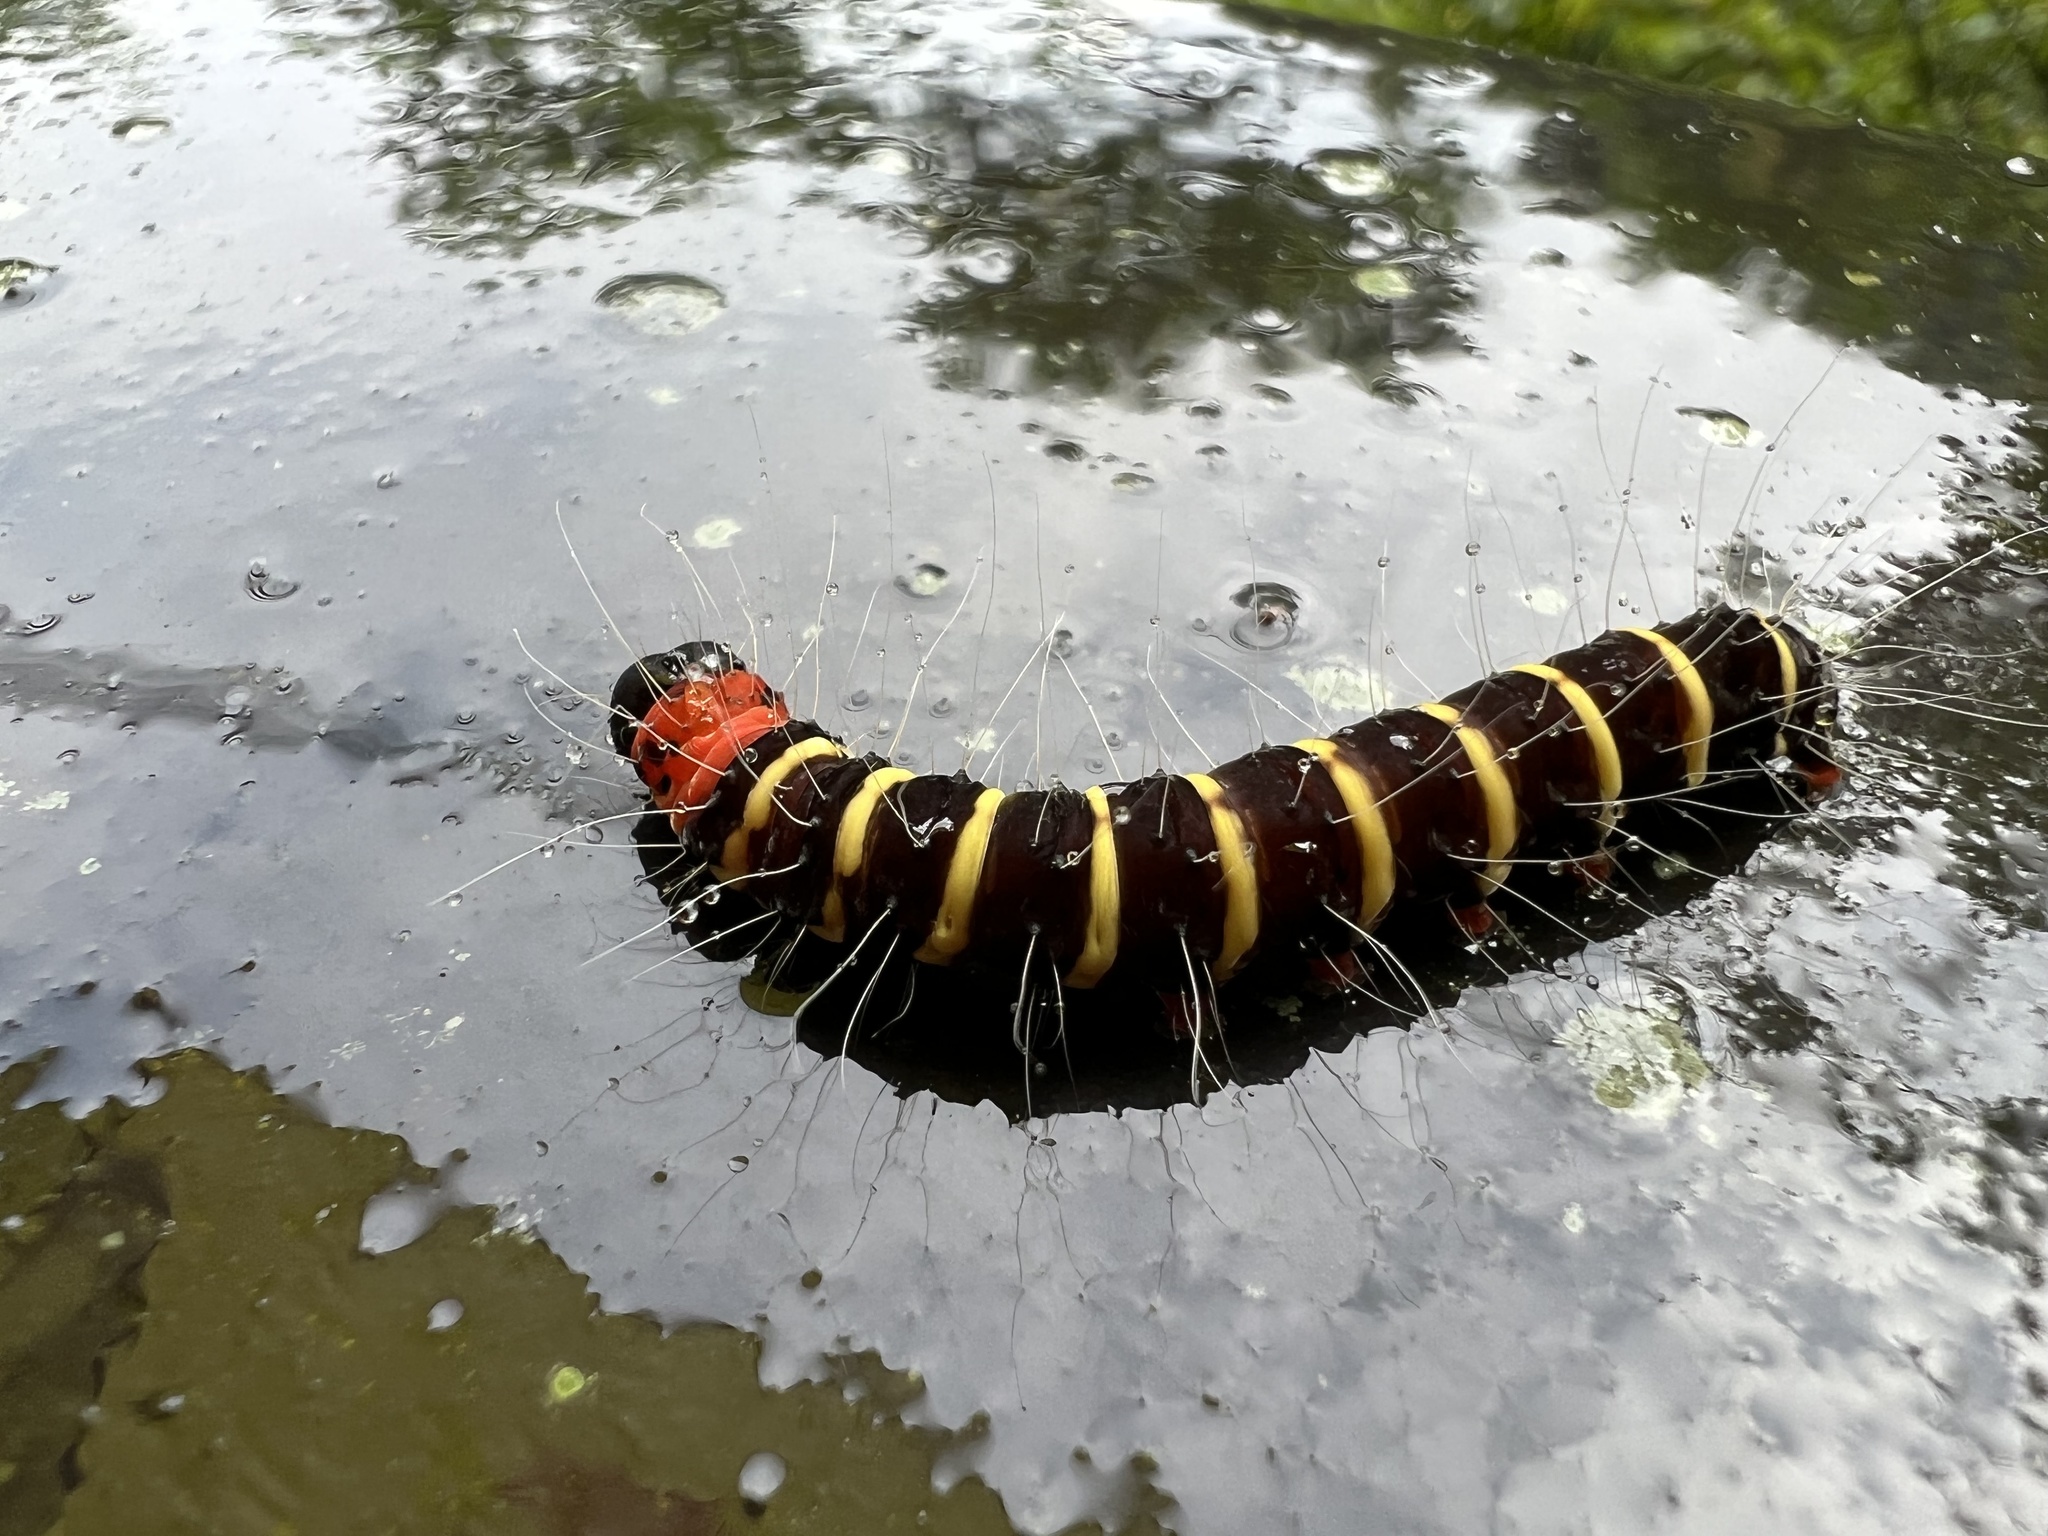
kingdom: Animalia
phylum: Arthropoda
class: Insecta
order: Lepidoptera
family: Erebidae
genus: Asota
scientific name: Asota plana
